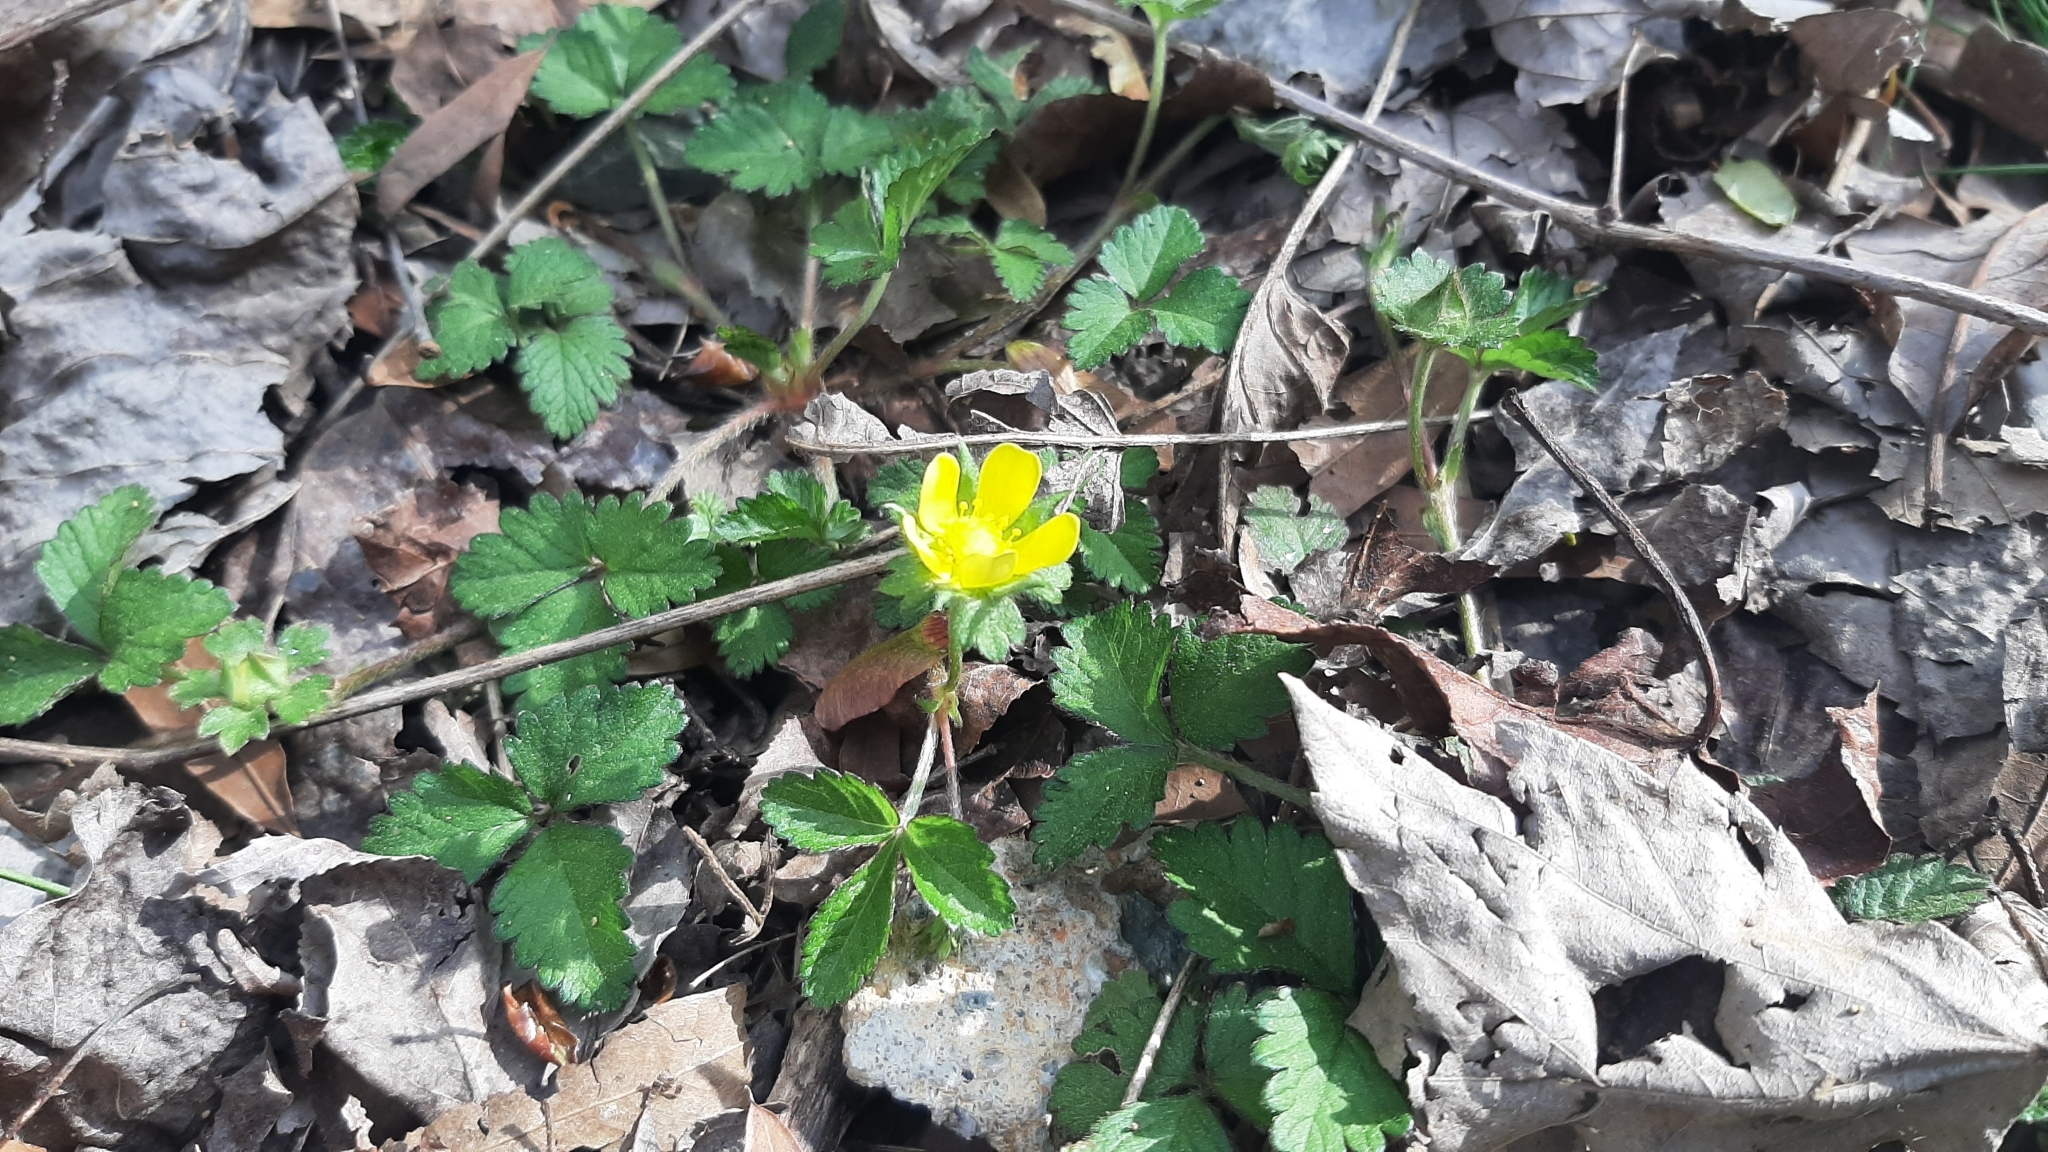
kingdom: Plantae
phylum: Tracheophyta
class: Magnoliopsida
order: Rosales
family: Rosaceae
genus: Potentilla
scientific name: Potentilla indica
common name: Yellow-flowered strawberry
